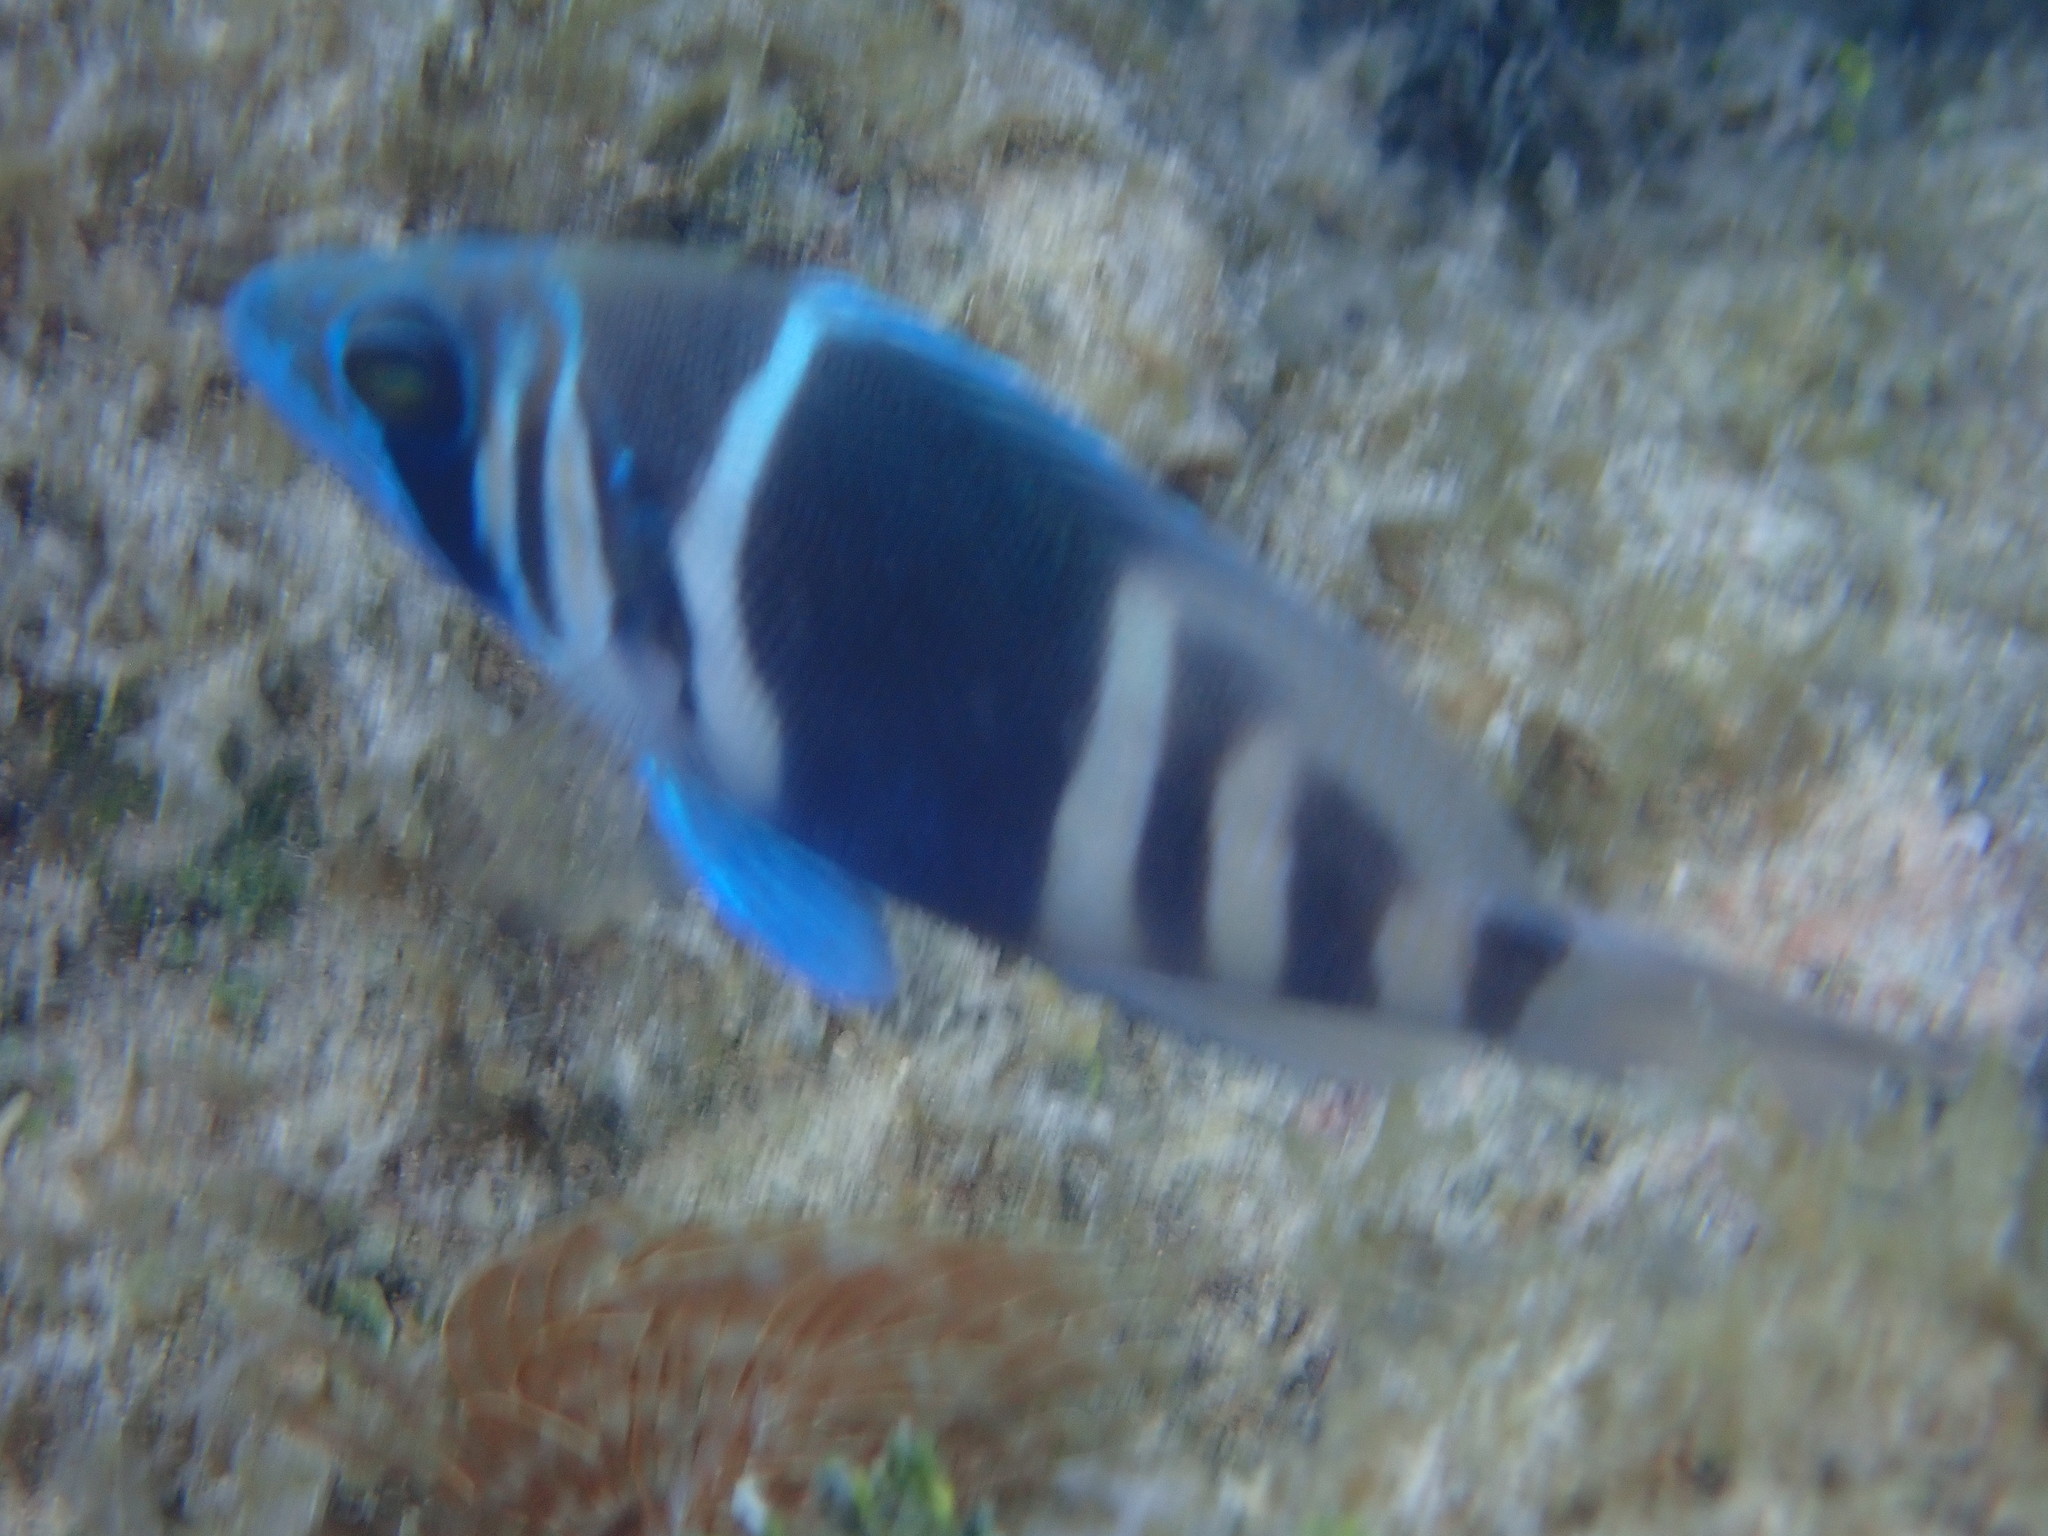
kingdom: Animalia
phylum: Chordata
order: Perciformes
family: Serranidae
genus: Hypoplectrus
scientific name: Hypoplectrus indigo
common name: Indigo hamlet
